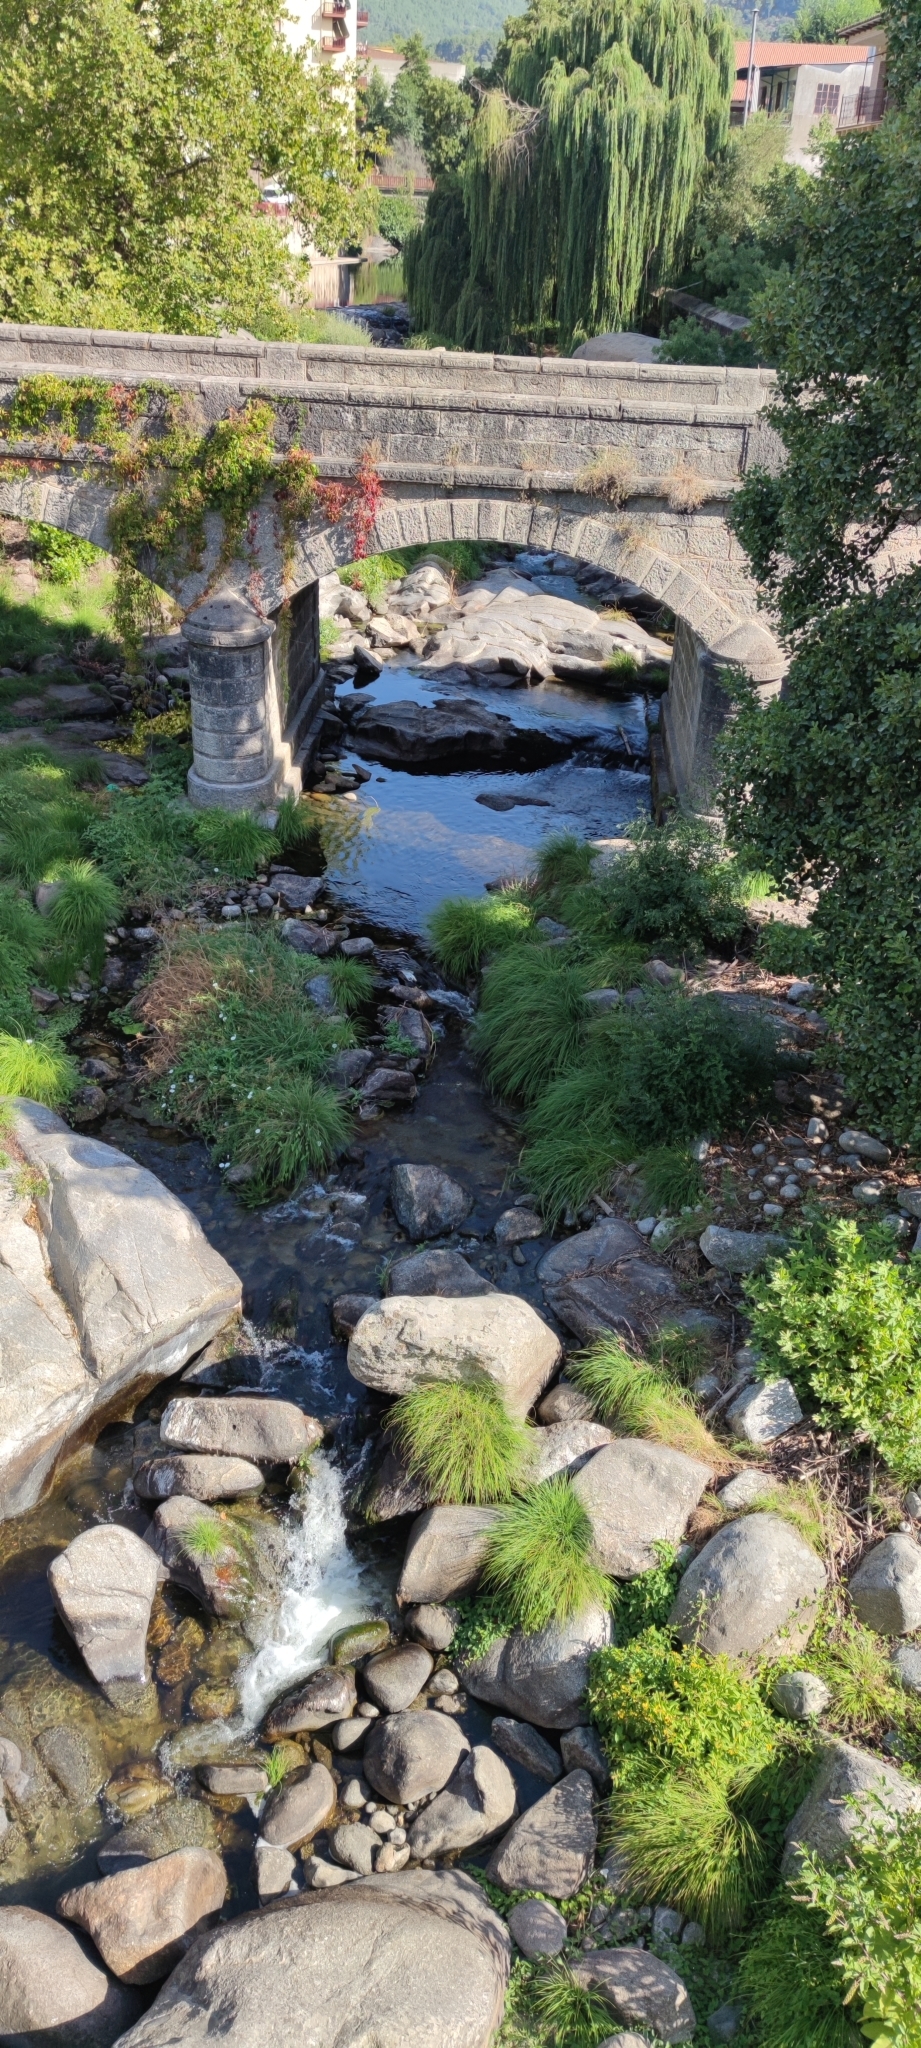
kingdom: Plantae
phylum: Tracheophyta
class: Liliopsida
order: Poales
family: Cyperaceae
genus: Carex
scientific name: Carex reuteriana
